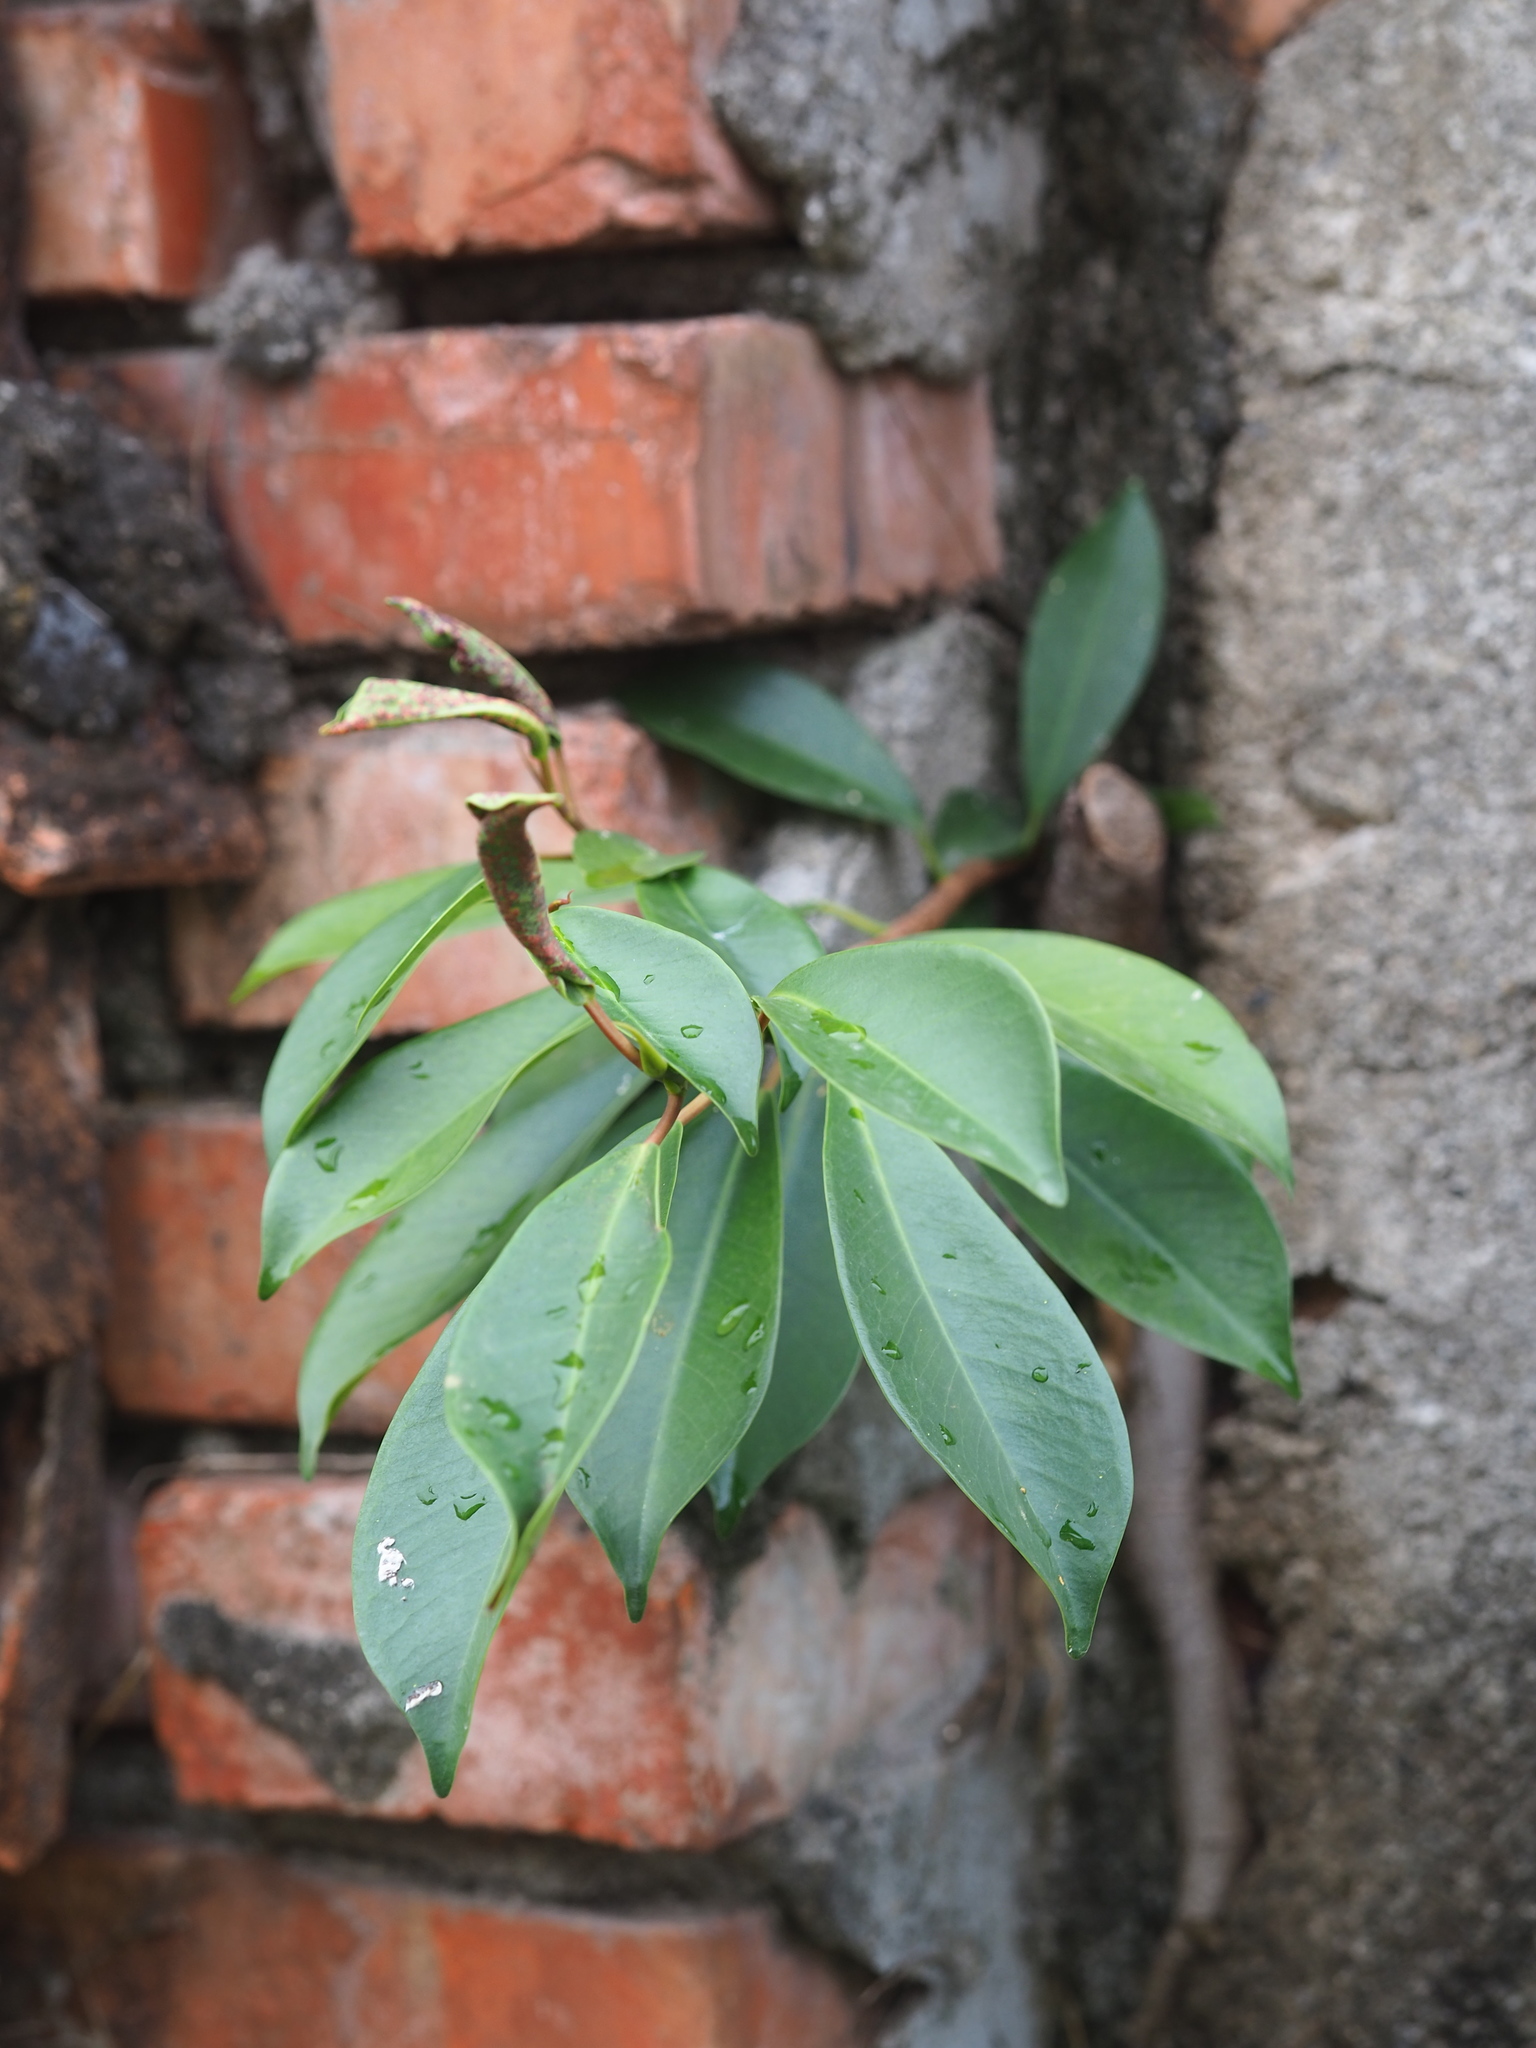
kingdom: Plantae
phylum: Tracheophyta
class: Magnoliopsida
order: Rosales
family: Moraceae
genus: Ficus
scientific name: Ficus microcarpa
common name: Chinese banyan
